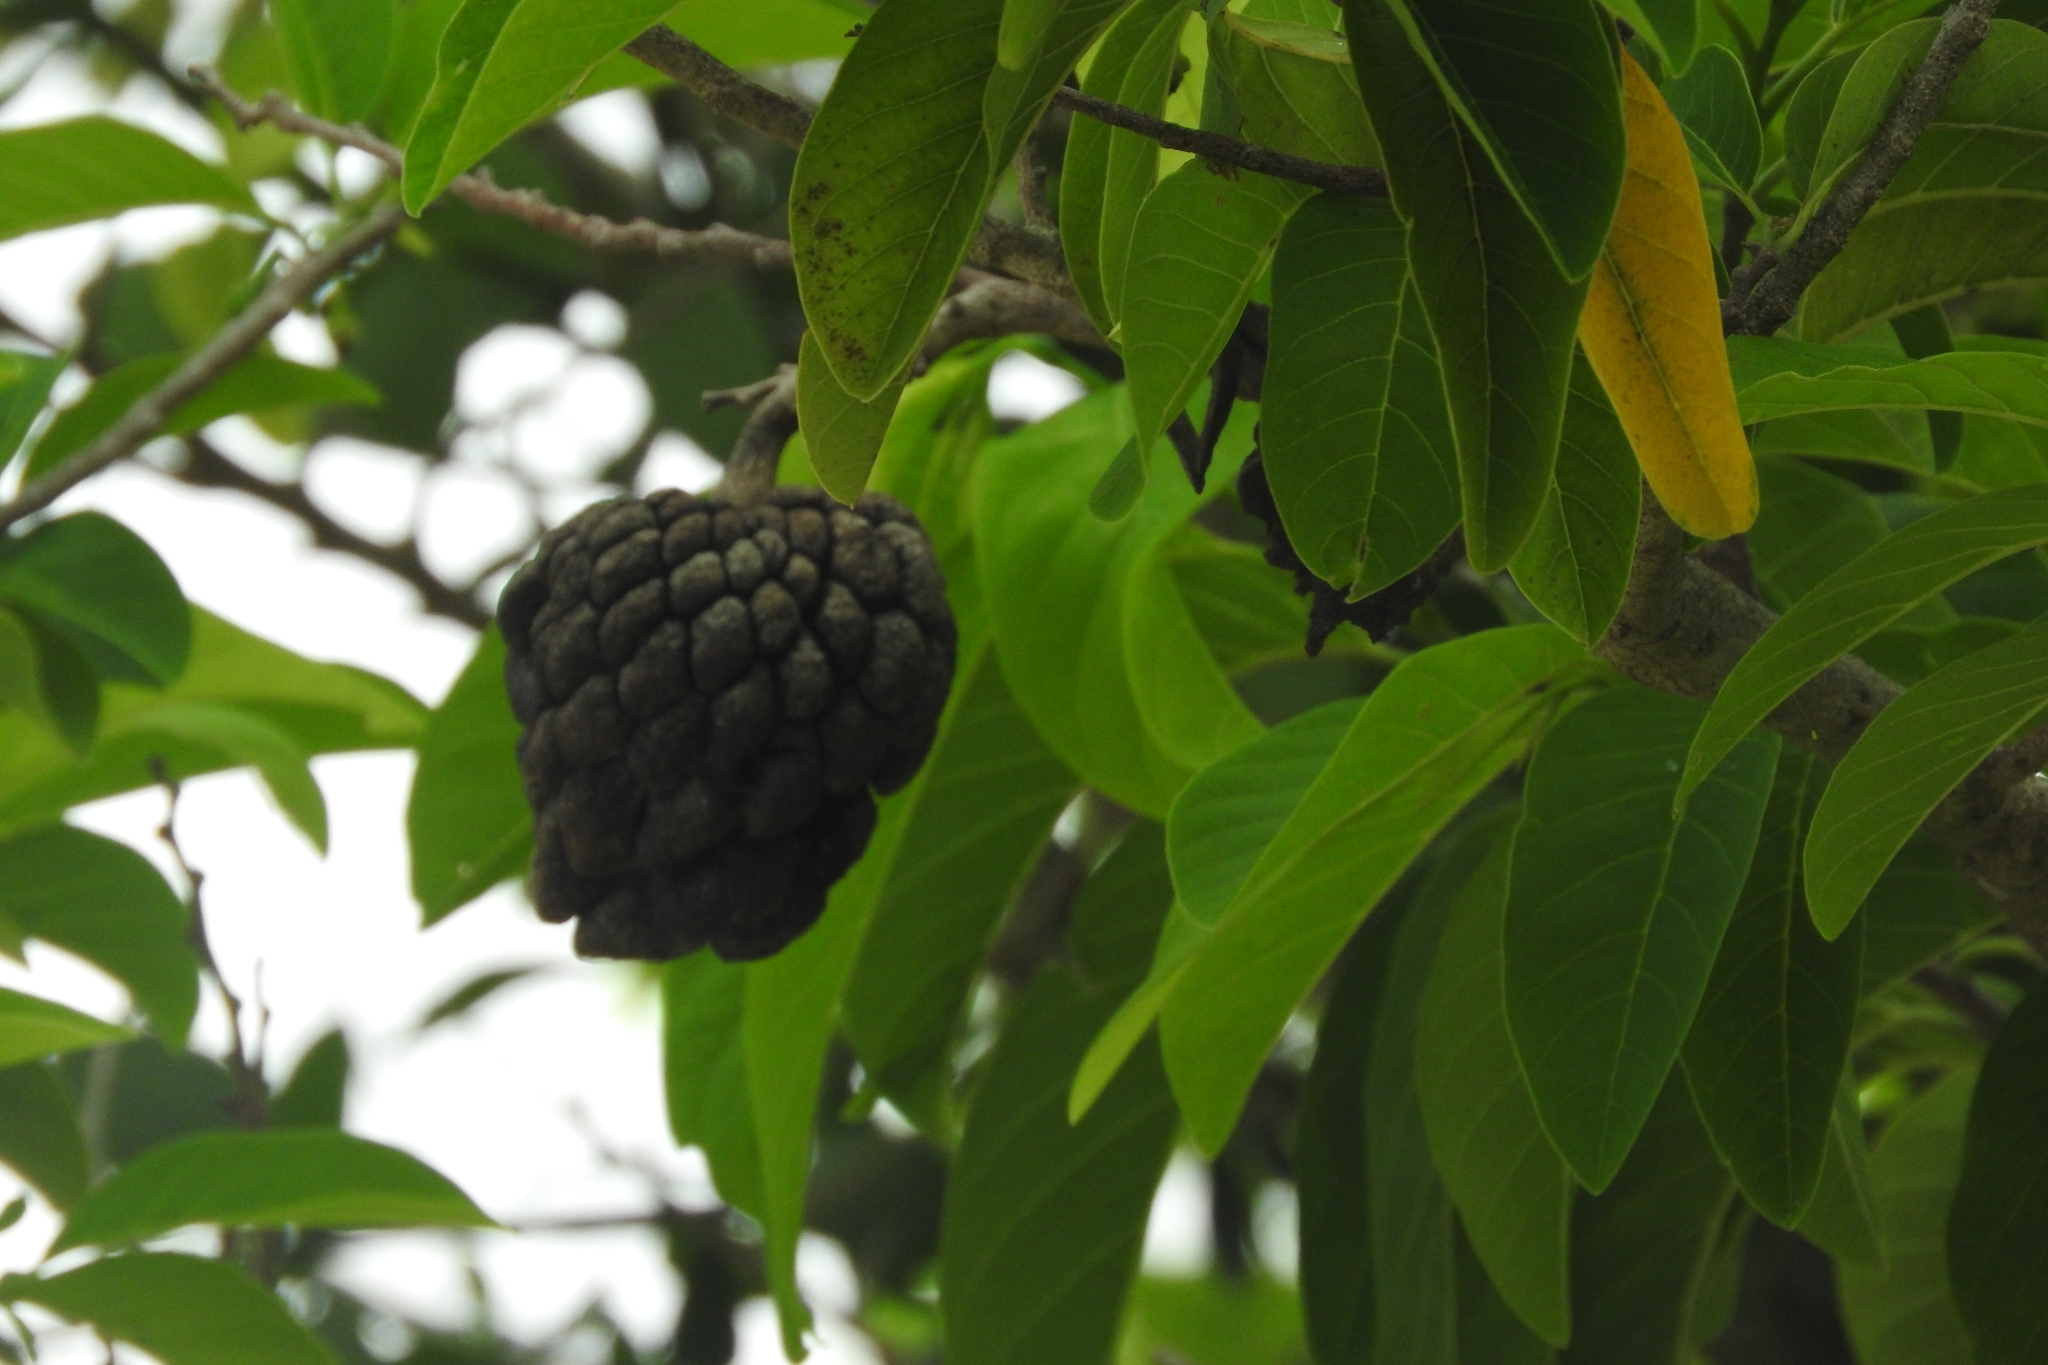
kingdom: Plantae
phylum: Tracheophyta
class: Magnoliopsida
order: Magnoliales
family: Annonaceae
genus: Annona
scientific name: Annona squamosa
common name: Custard-apple
